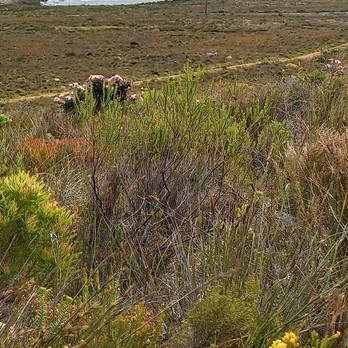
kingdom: Plantae
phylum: Tracheophyta
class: Magnoliopsida
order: Asterales
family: Asteraceae
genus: Phaenocoma
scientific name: Phaenocoma prolifera
